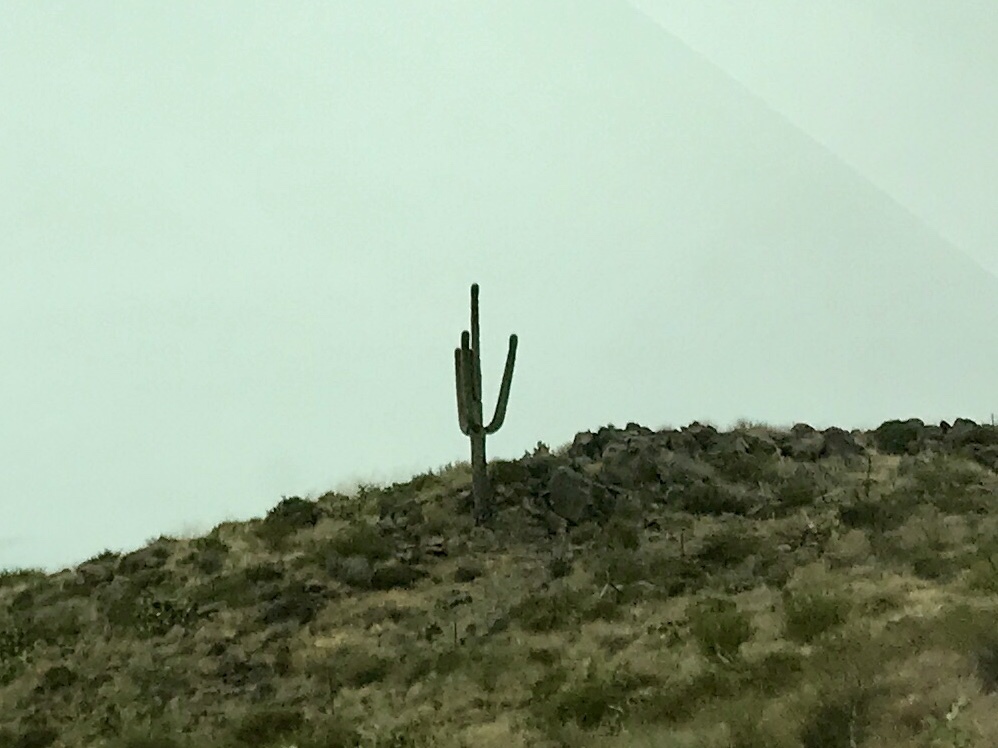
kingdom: Plantae
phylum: Tracheophyta
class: Magnoliopsida
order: Caryophyllales
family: Cactaceae
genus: Carnegiea
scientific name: Carnegiea gigantea
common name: Saguaro
